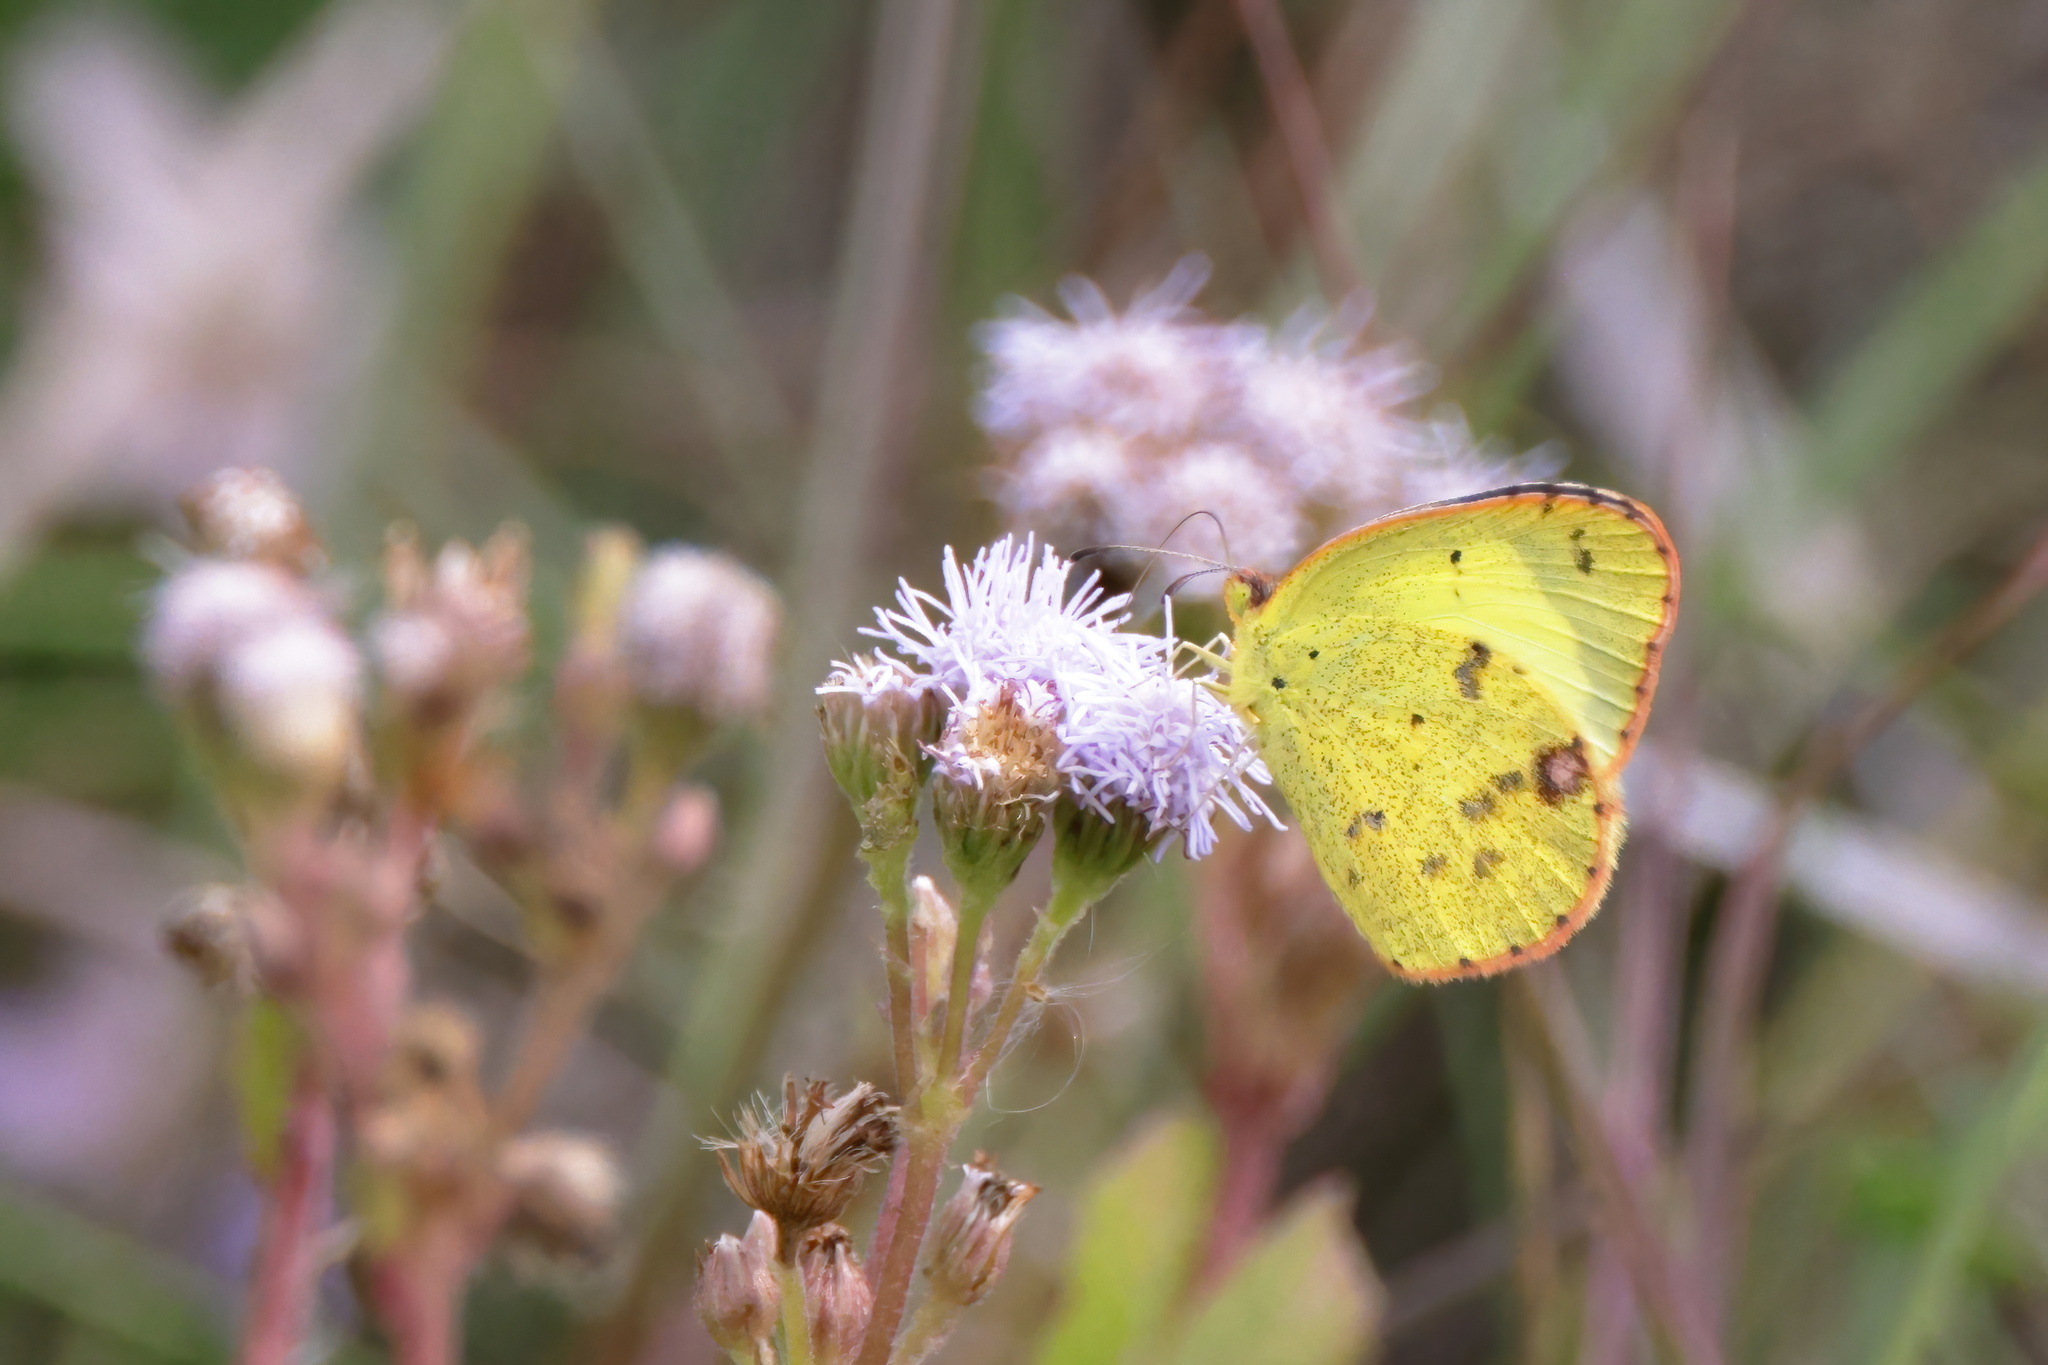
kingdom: Animalia
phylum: Arthropoda
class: Insecta
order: Lepidoptera
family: Pieridae
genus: Pyrisitia
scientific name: Pyrisitia lisa
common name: Little yellow
